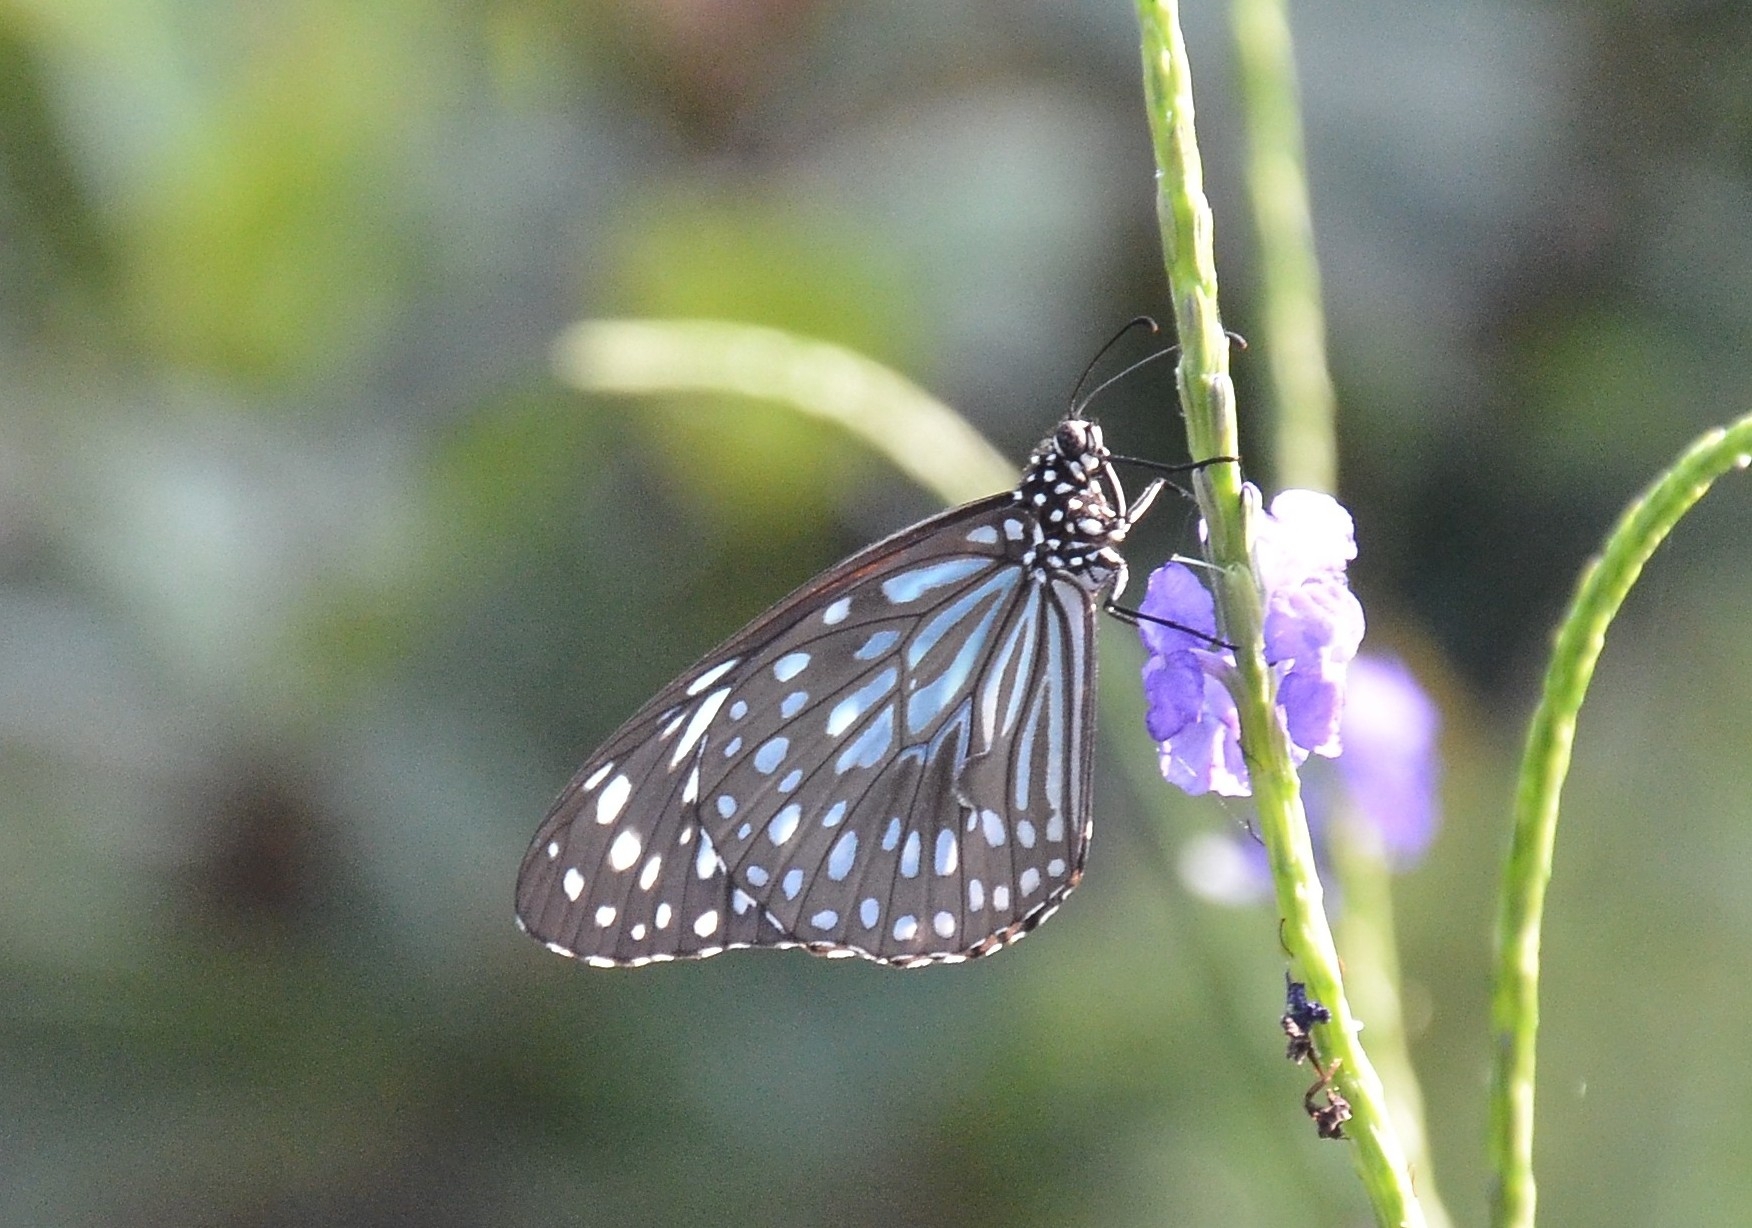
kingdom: Animalia
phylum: Arthropoda
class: Insecta
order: Lepidoptera
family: Nymphalidae
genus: Tirumala
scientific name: Tirumala septentrionis
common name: Dark blue tiger butterfly
